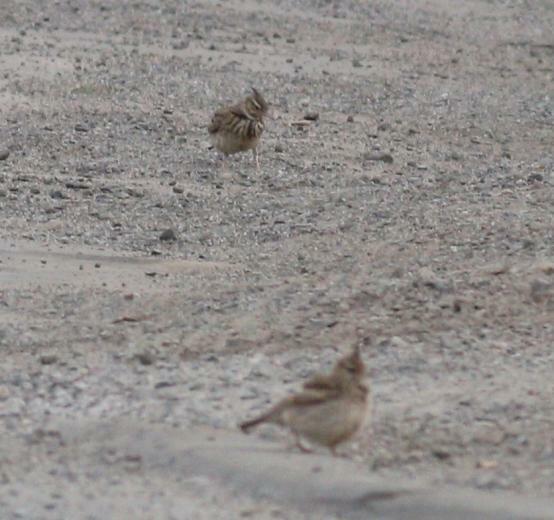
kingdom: Animalia
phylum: Chordata
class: Aves
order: Passeriformes
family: Alaudidae
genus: Galerida
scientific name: Galerida cristata
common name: Crested lark
